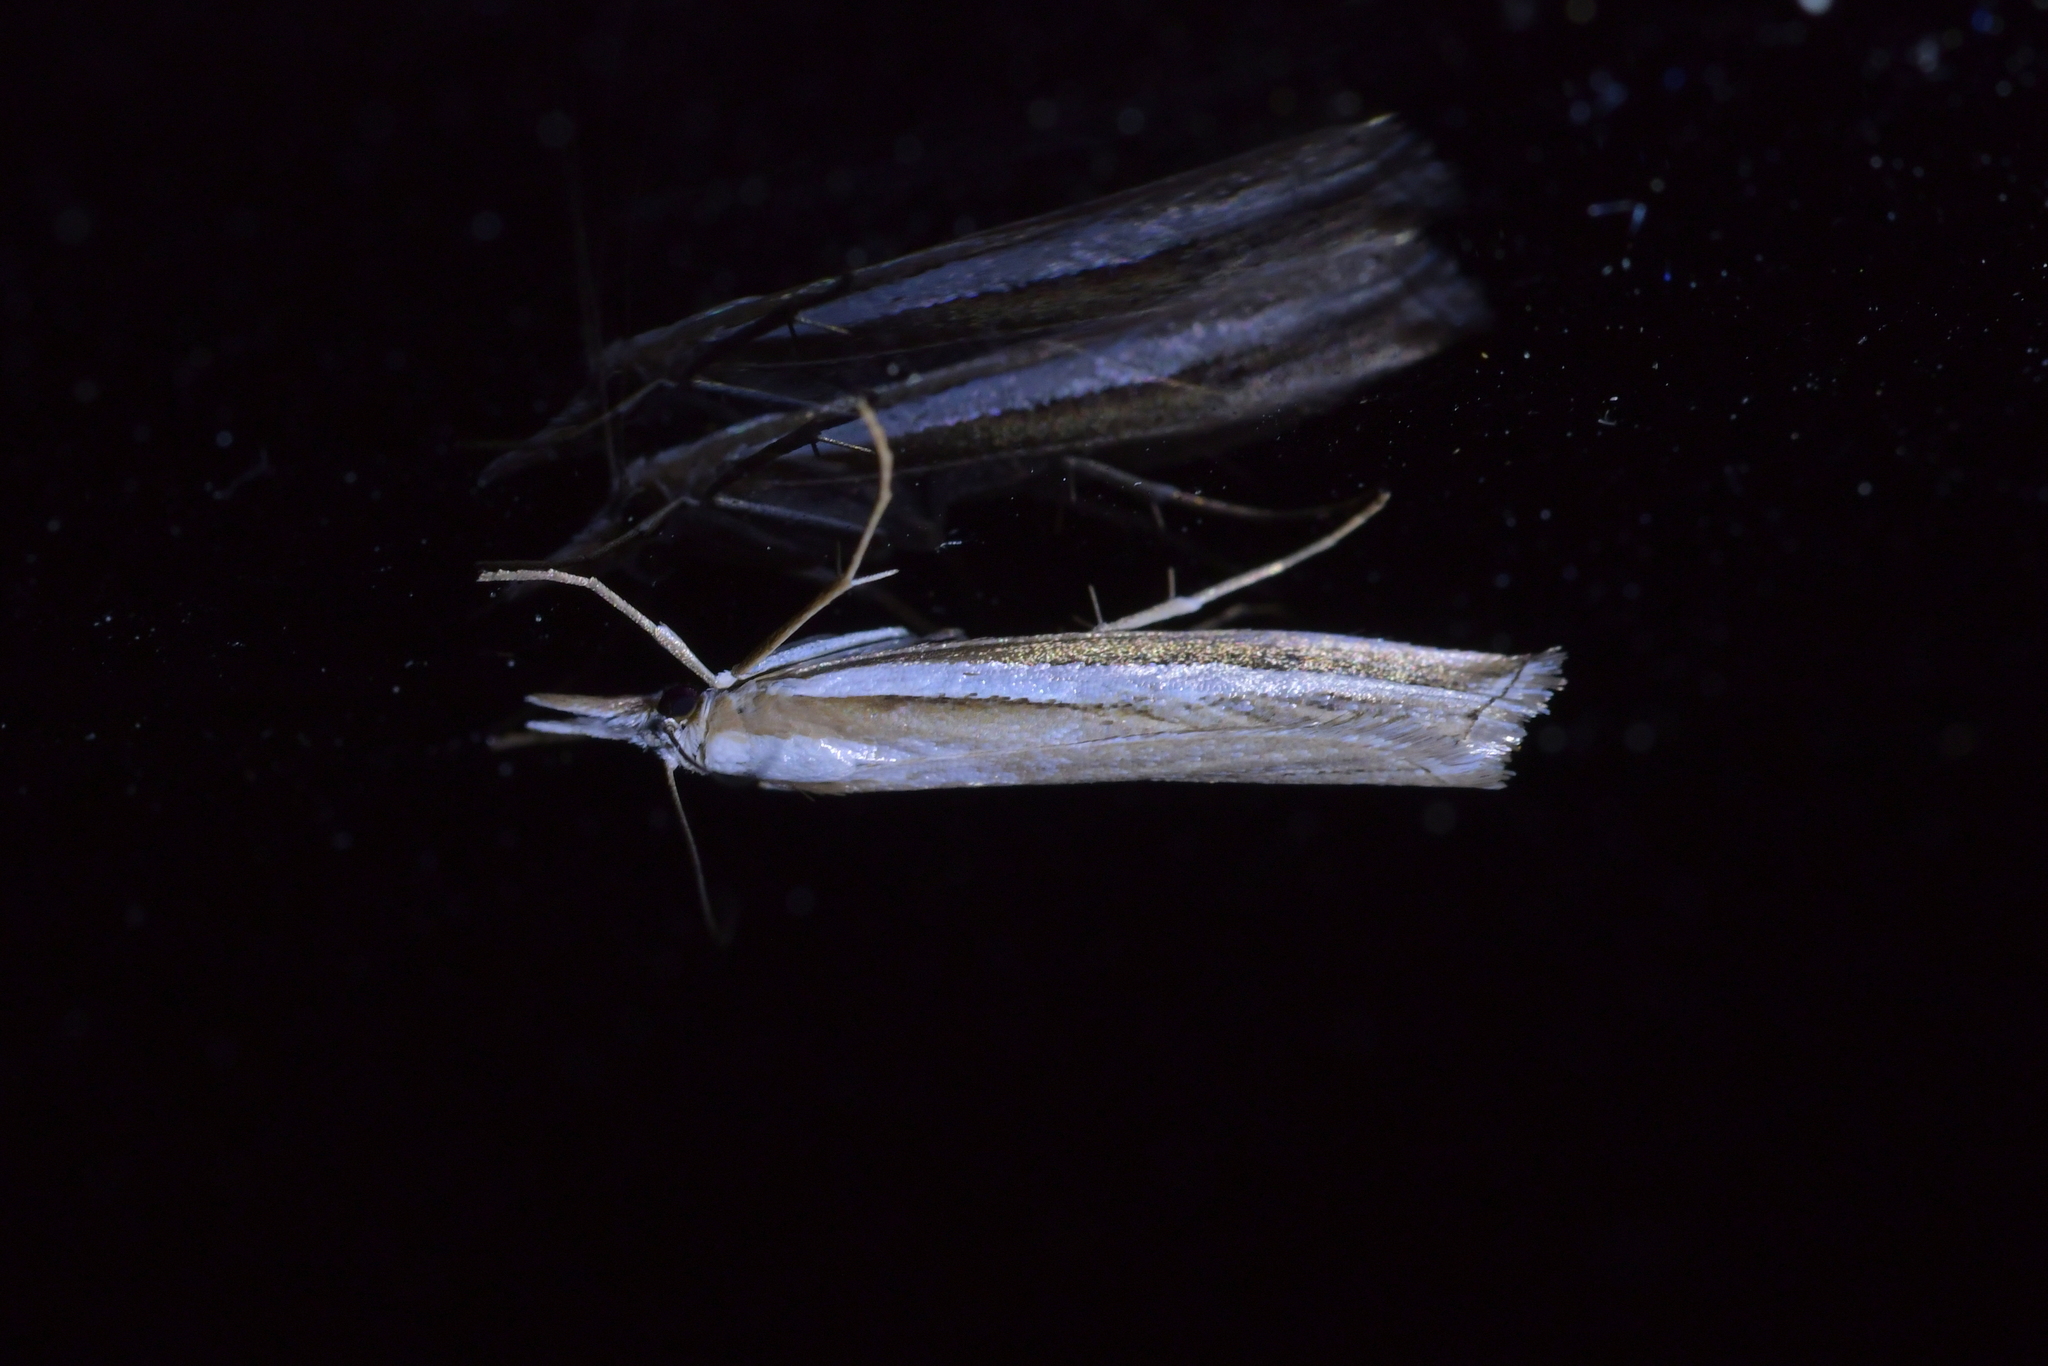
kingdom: Animalia
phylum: Arthropoda
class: Insecta
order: Lepidoptera
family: Crambidae
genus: Orocrambus
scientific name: Orocrambus vittellus
